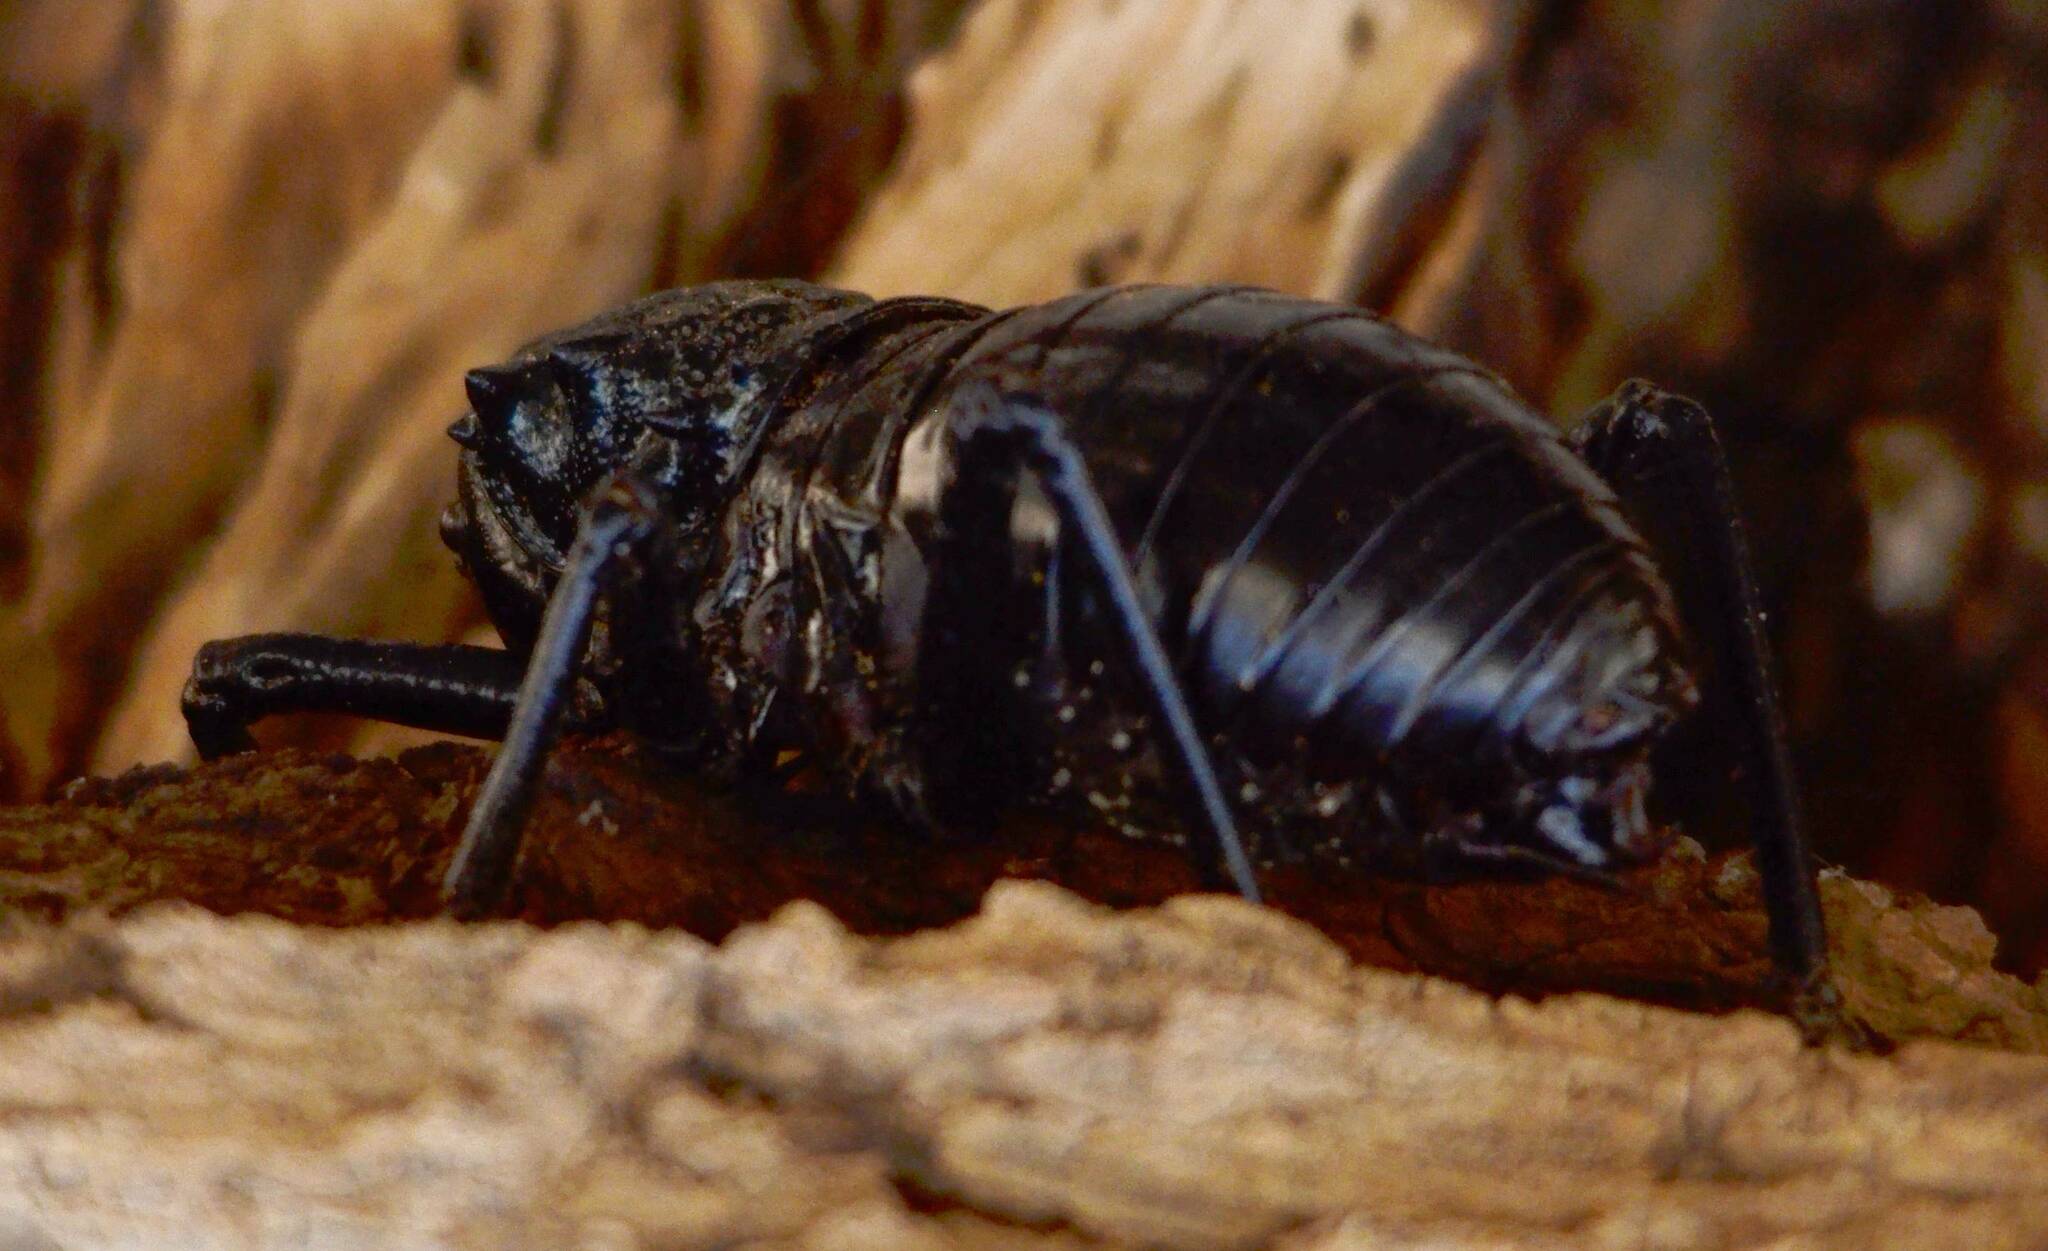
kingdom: Animalia
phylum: Arthropoda
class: Insecta
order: Orthoptera
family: Tettigoniidae
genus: Eugaster
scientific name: Eugaster guyoni
